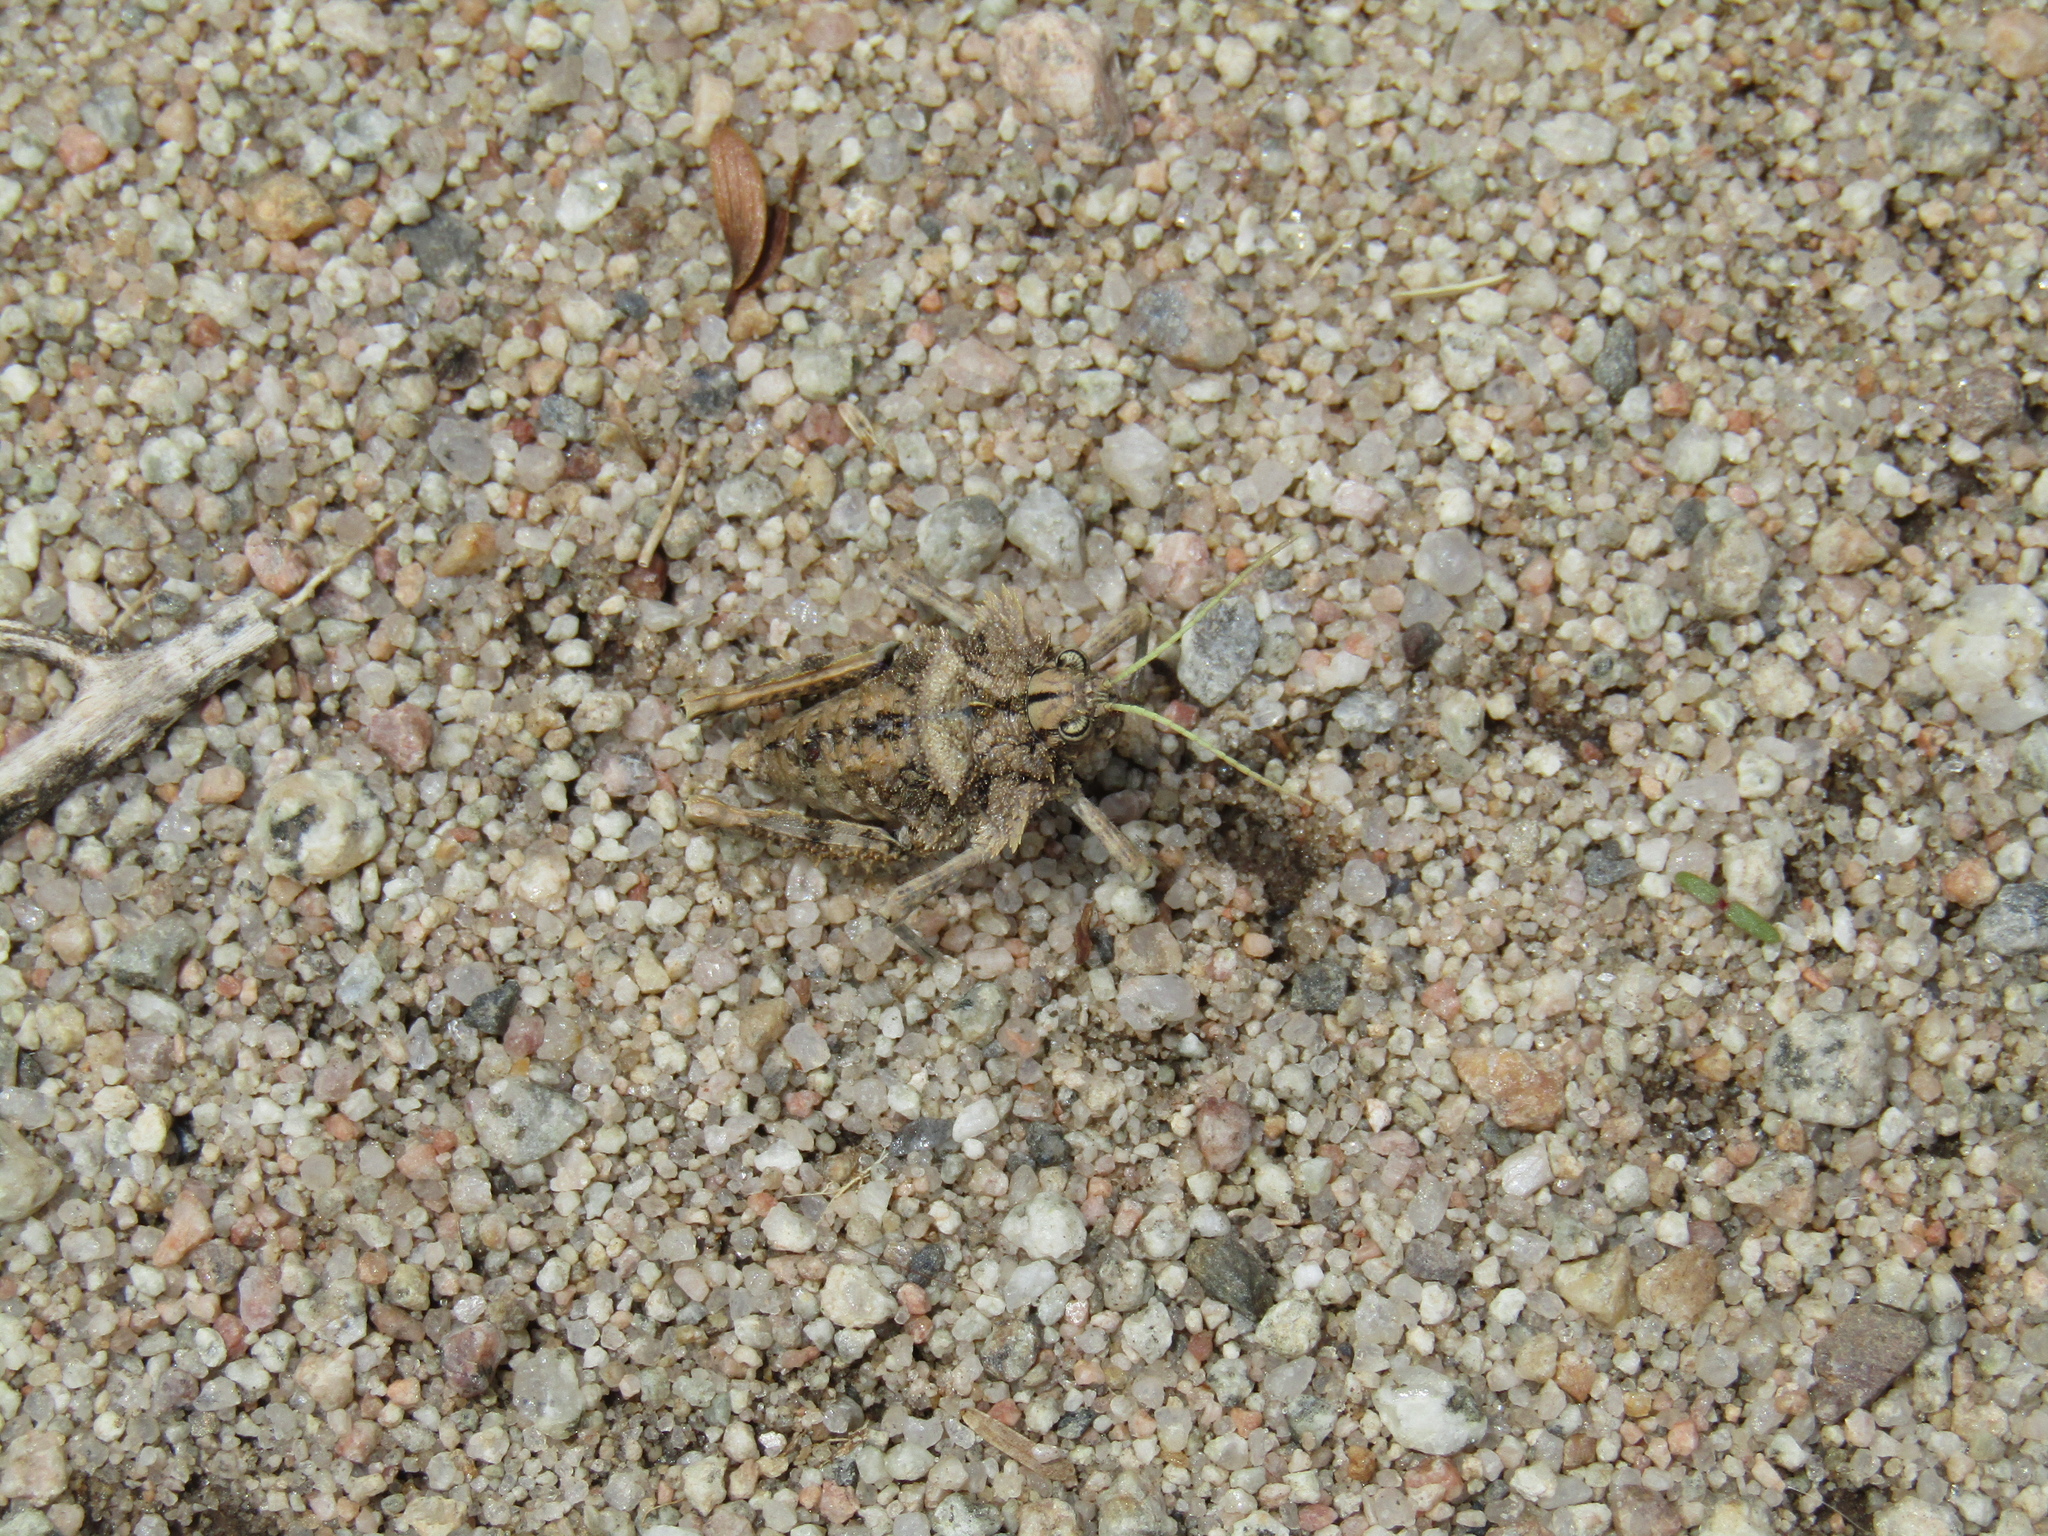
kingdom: Animalia
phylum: Arthropoda
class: Insecta
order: Orthoptera
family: Ommexechidae
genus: Graea
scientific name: Graea horrida
